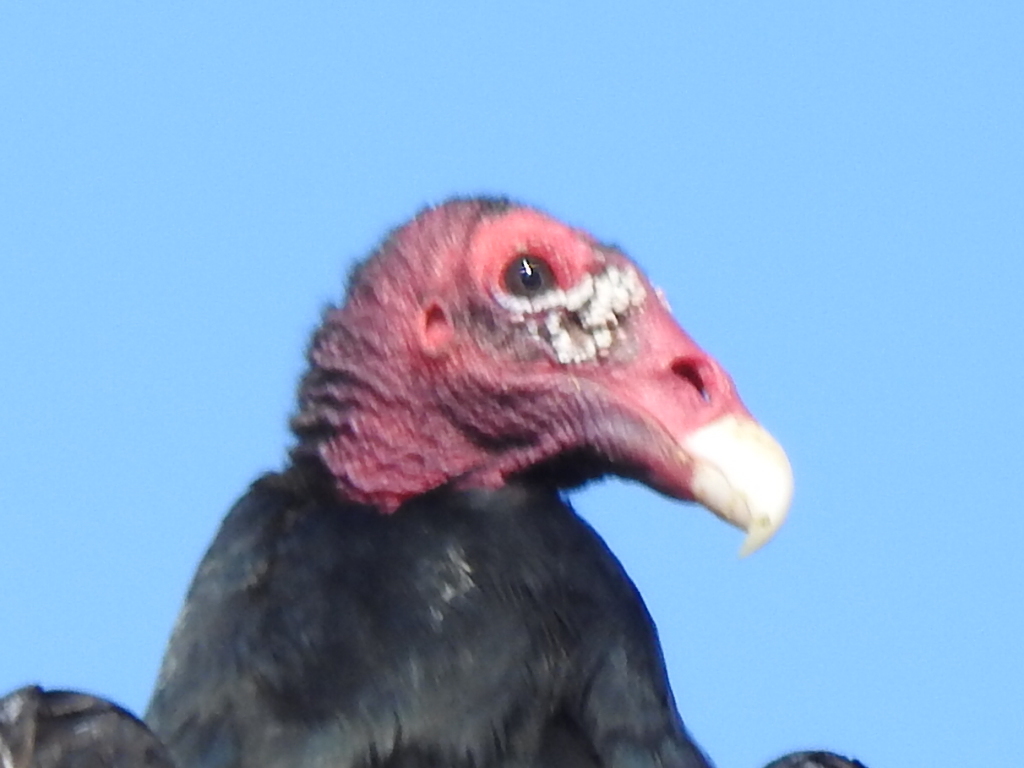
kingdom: Animalia
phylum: Chordata
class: Aves
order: Accipitriformes
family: Cathartidae
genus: Cathartes
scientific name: Cathartes aura
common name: Turkey vulture
